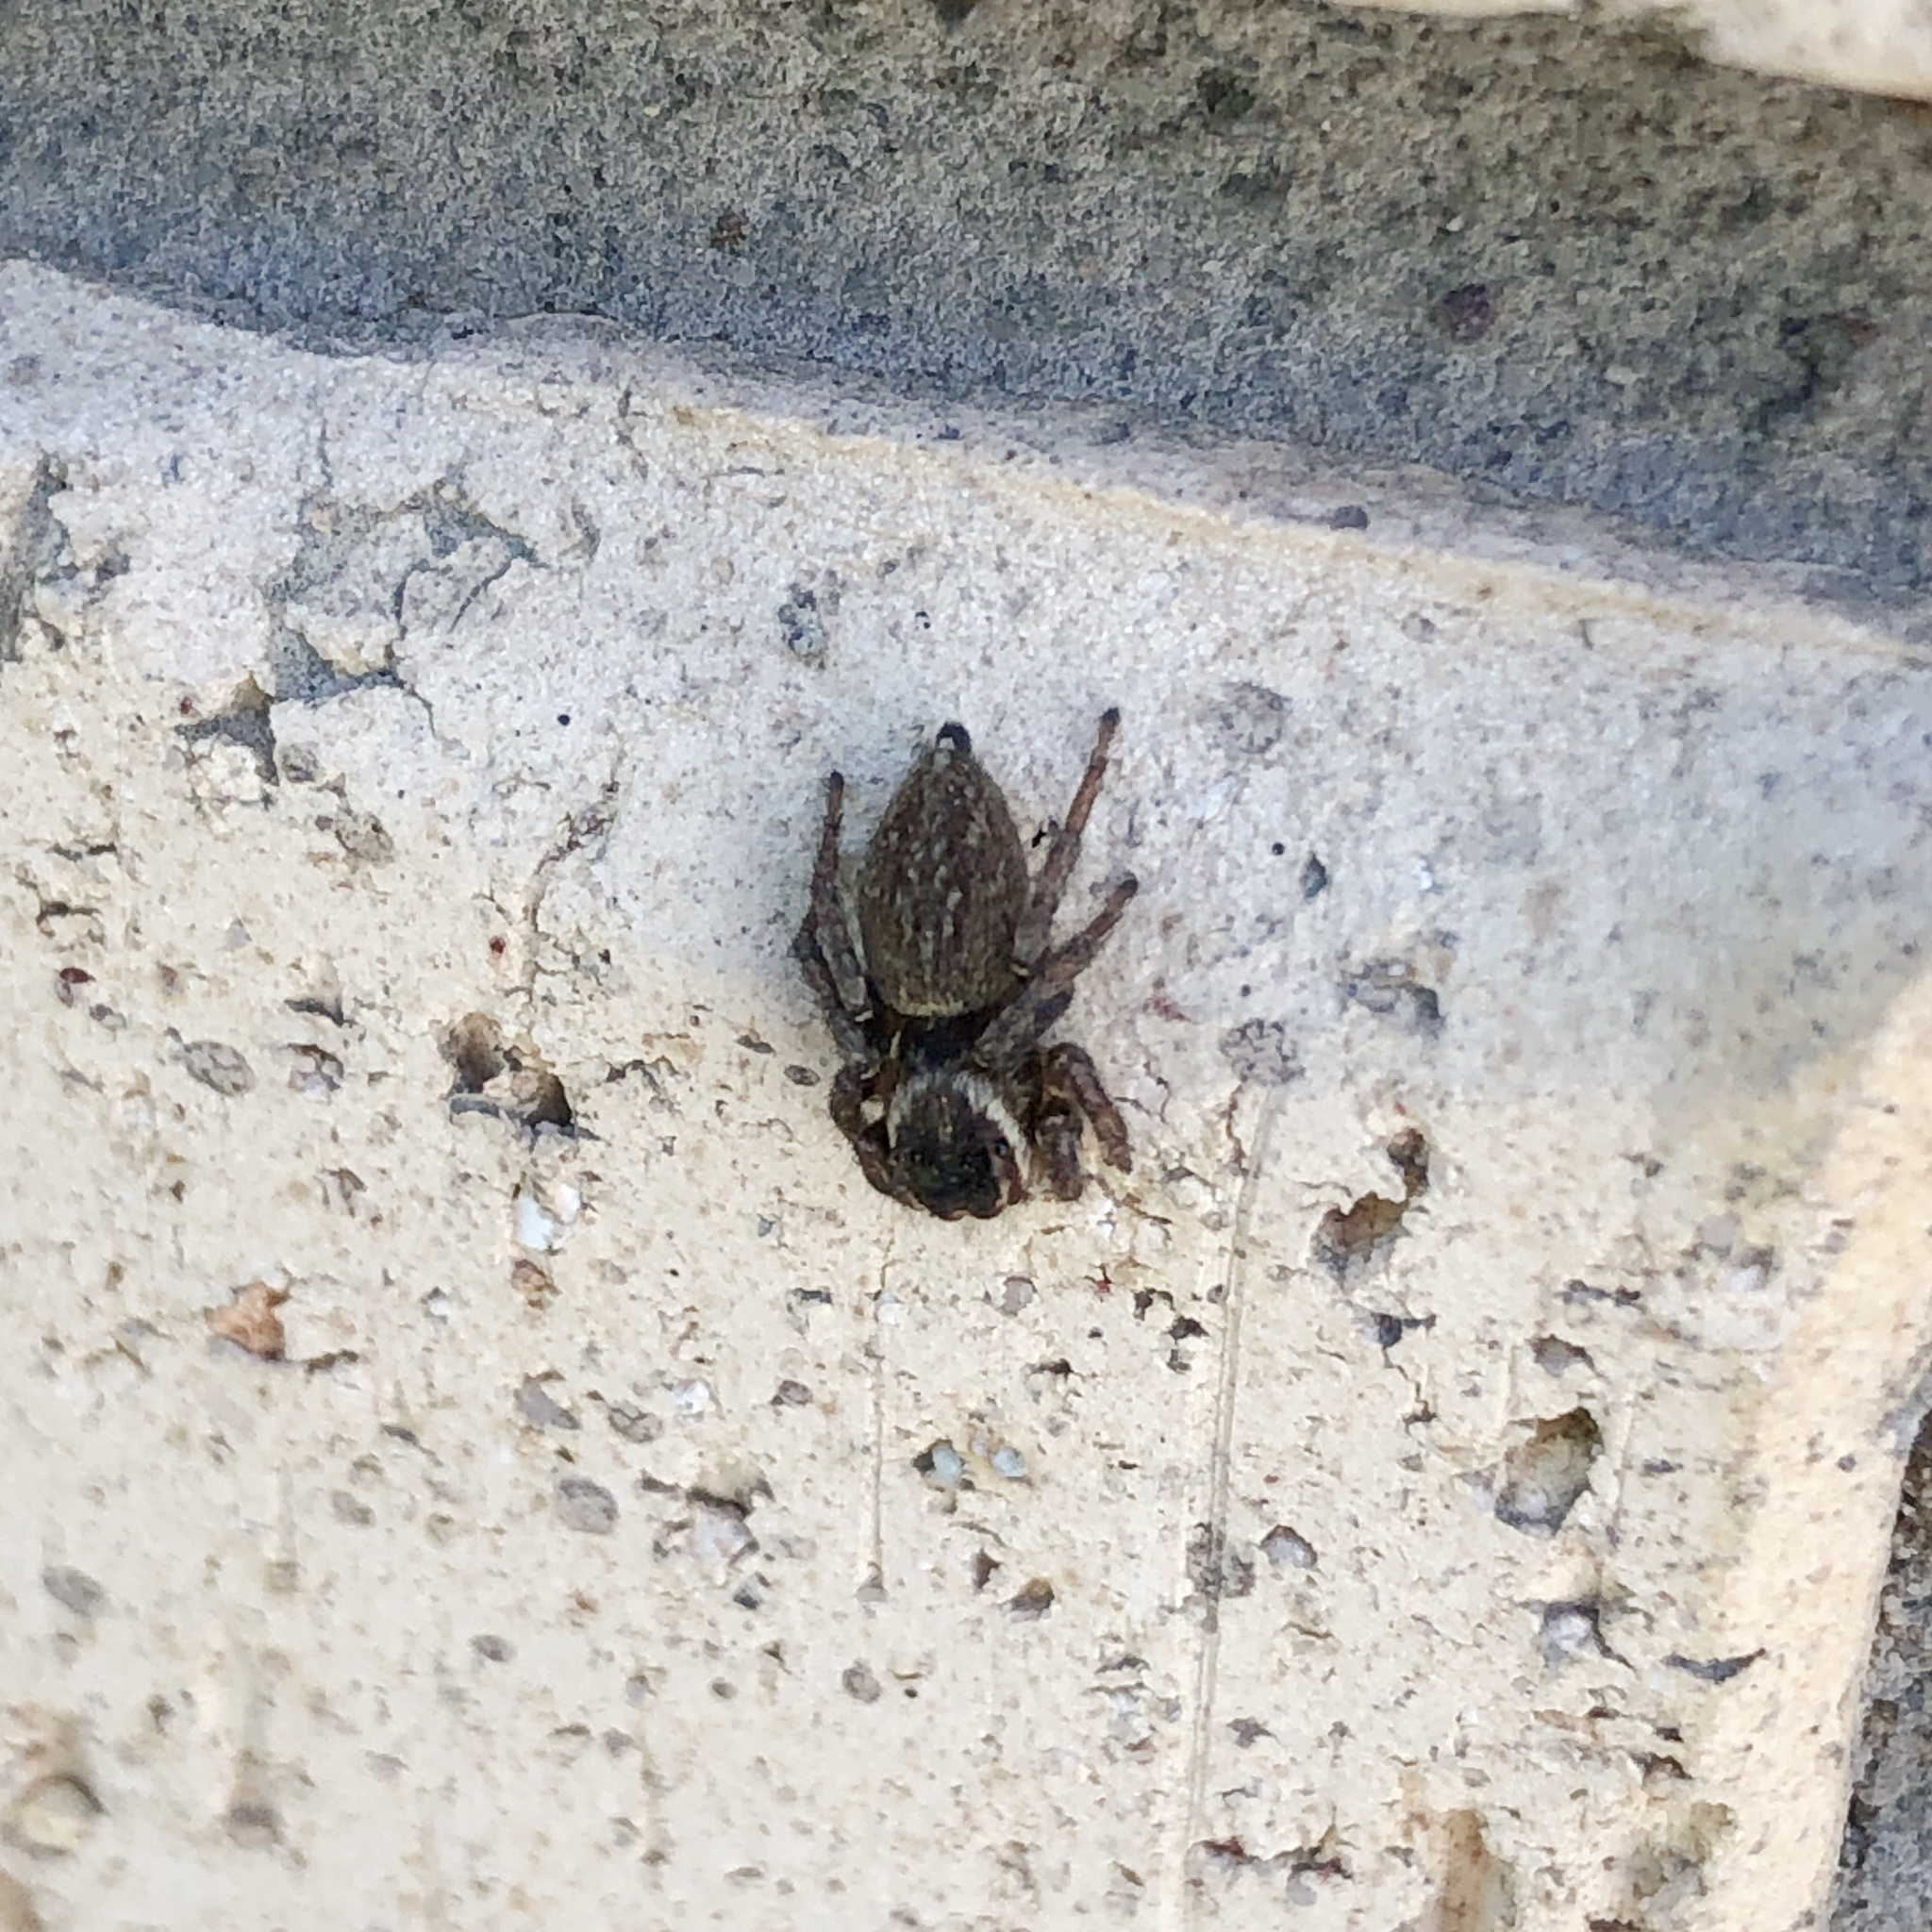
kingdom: Animalia
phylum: Arthropoda
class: Arachnida
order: Araneae
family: Salticidae
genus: Maratus
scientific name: Maratus griseus
